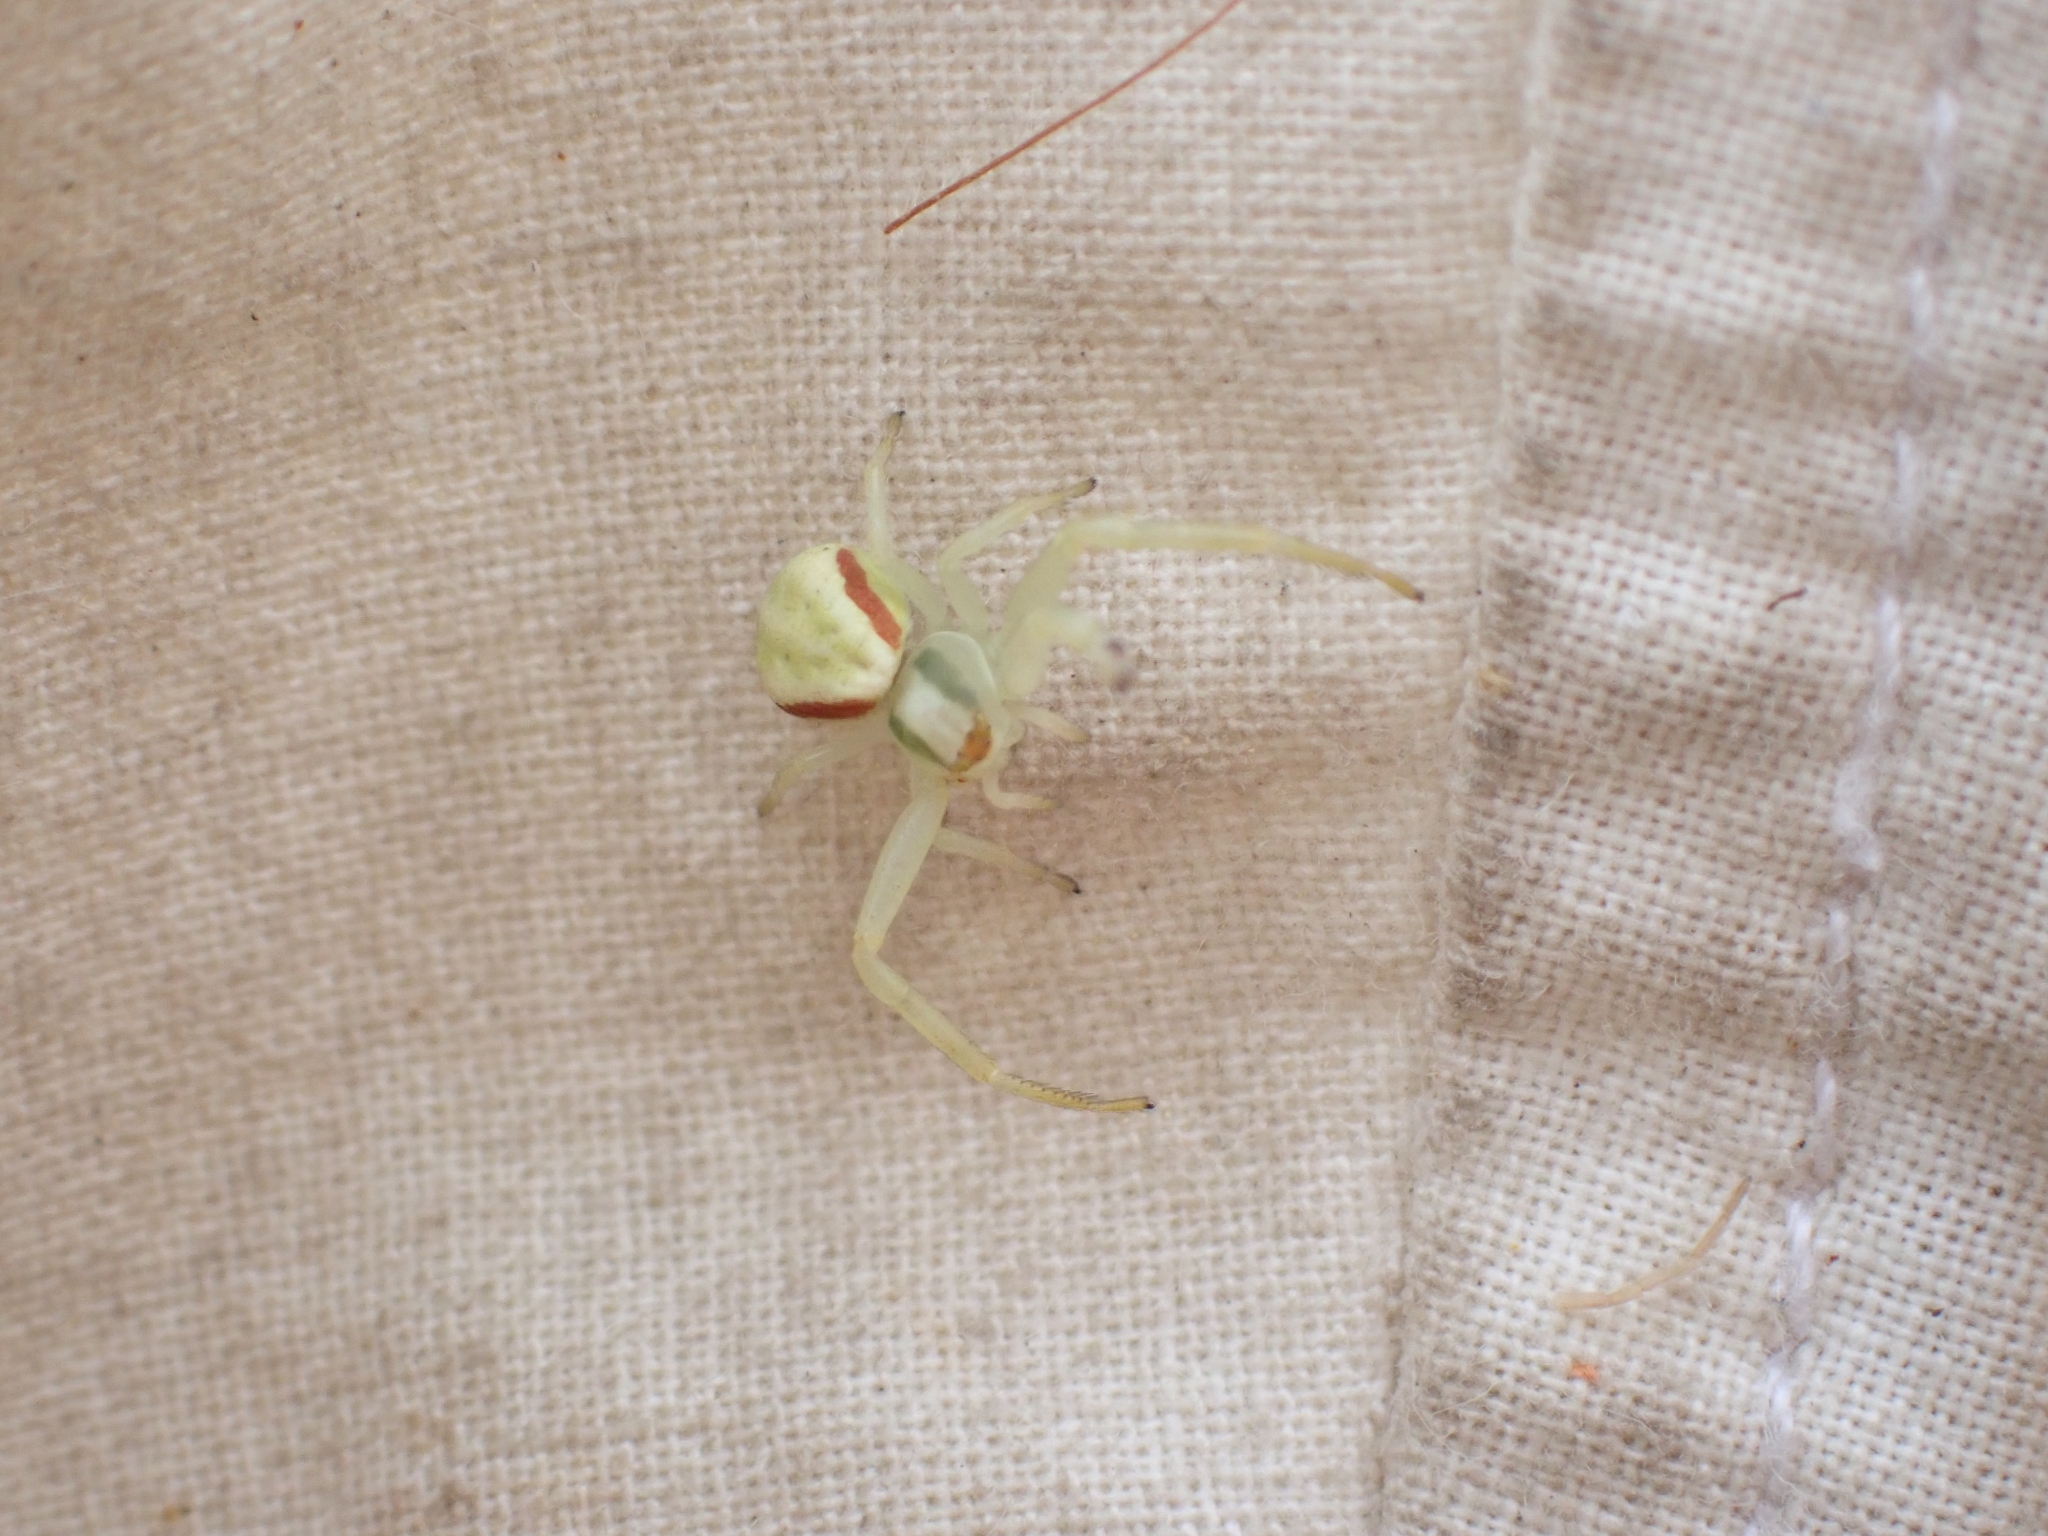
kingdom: Animalia
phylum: Arthropoda
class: Arachnida
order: Araneae
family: Thomisidae
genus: Misumena
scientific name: Misumena vatia
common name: Goldenrod crab spider
